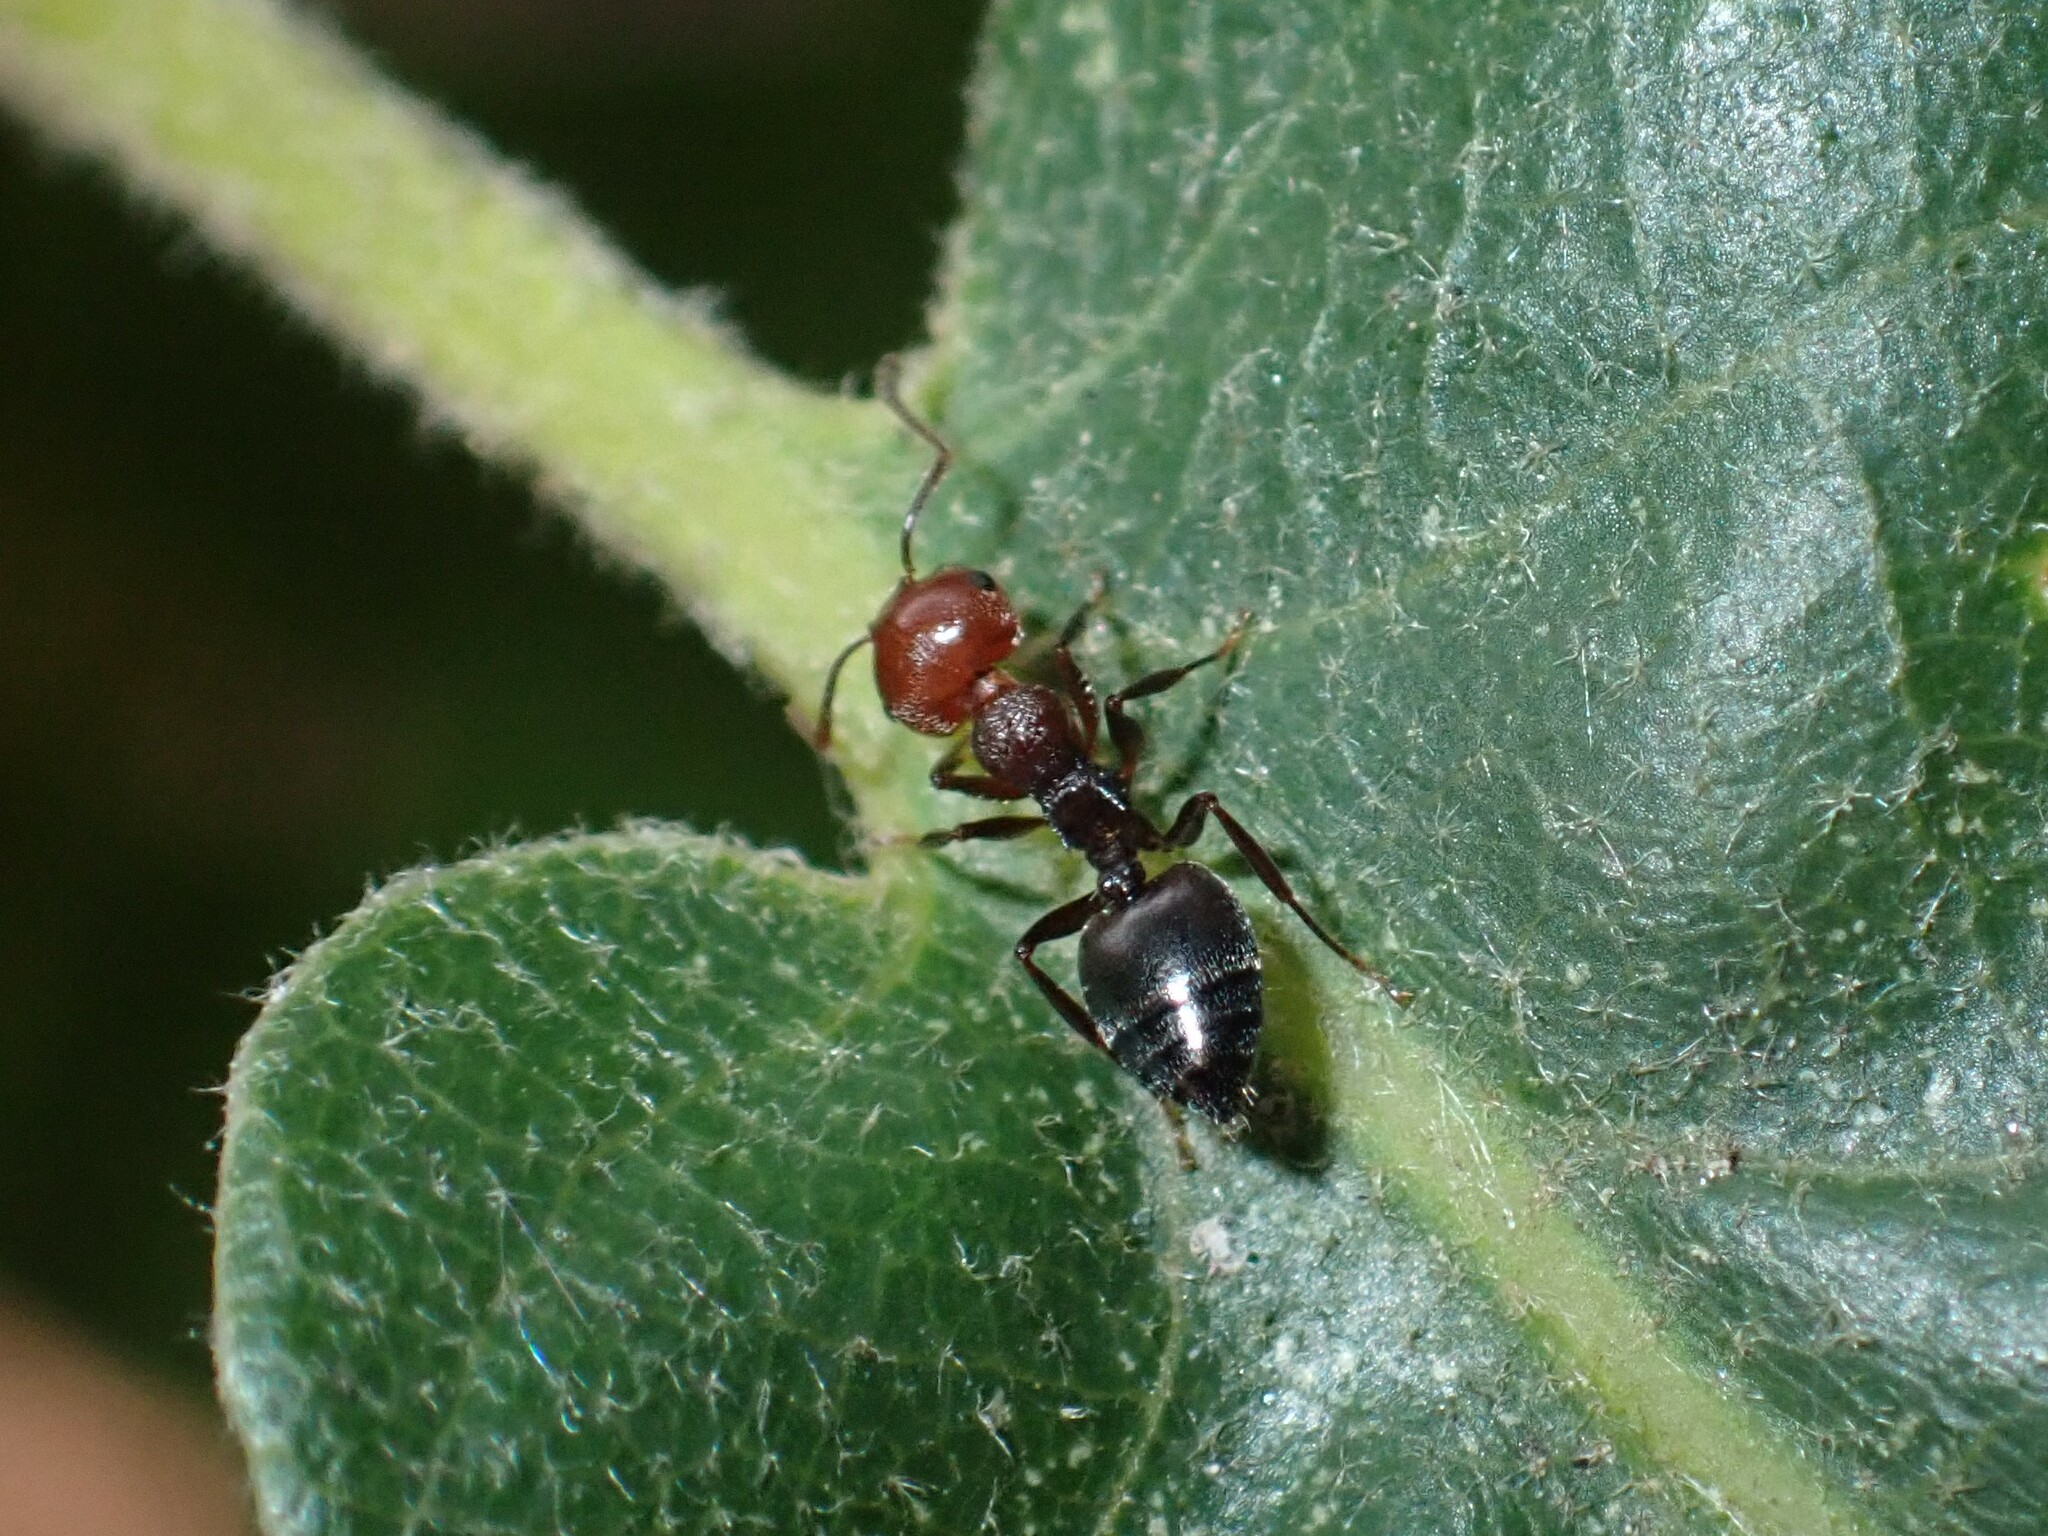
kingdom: Animalia
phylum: Arthropoda
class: Insecta
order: Hymenoptera
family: Formicidae
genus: Crematogaster
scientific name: Crematogaster scutellaris
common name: Fourmi du liège
